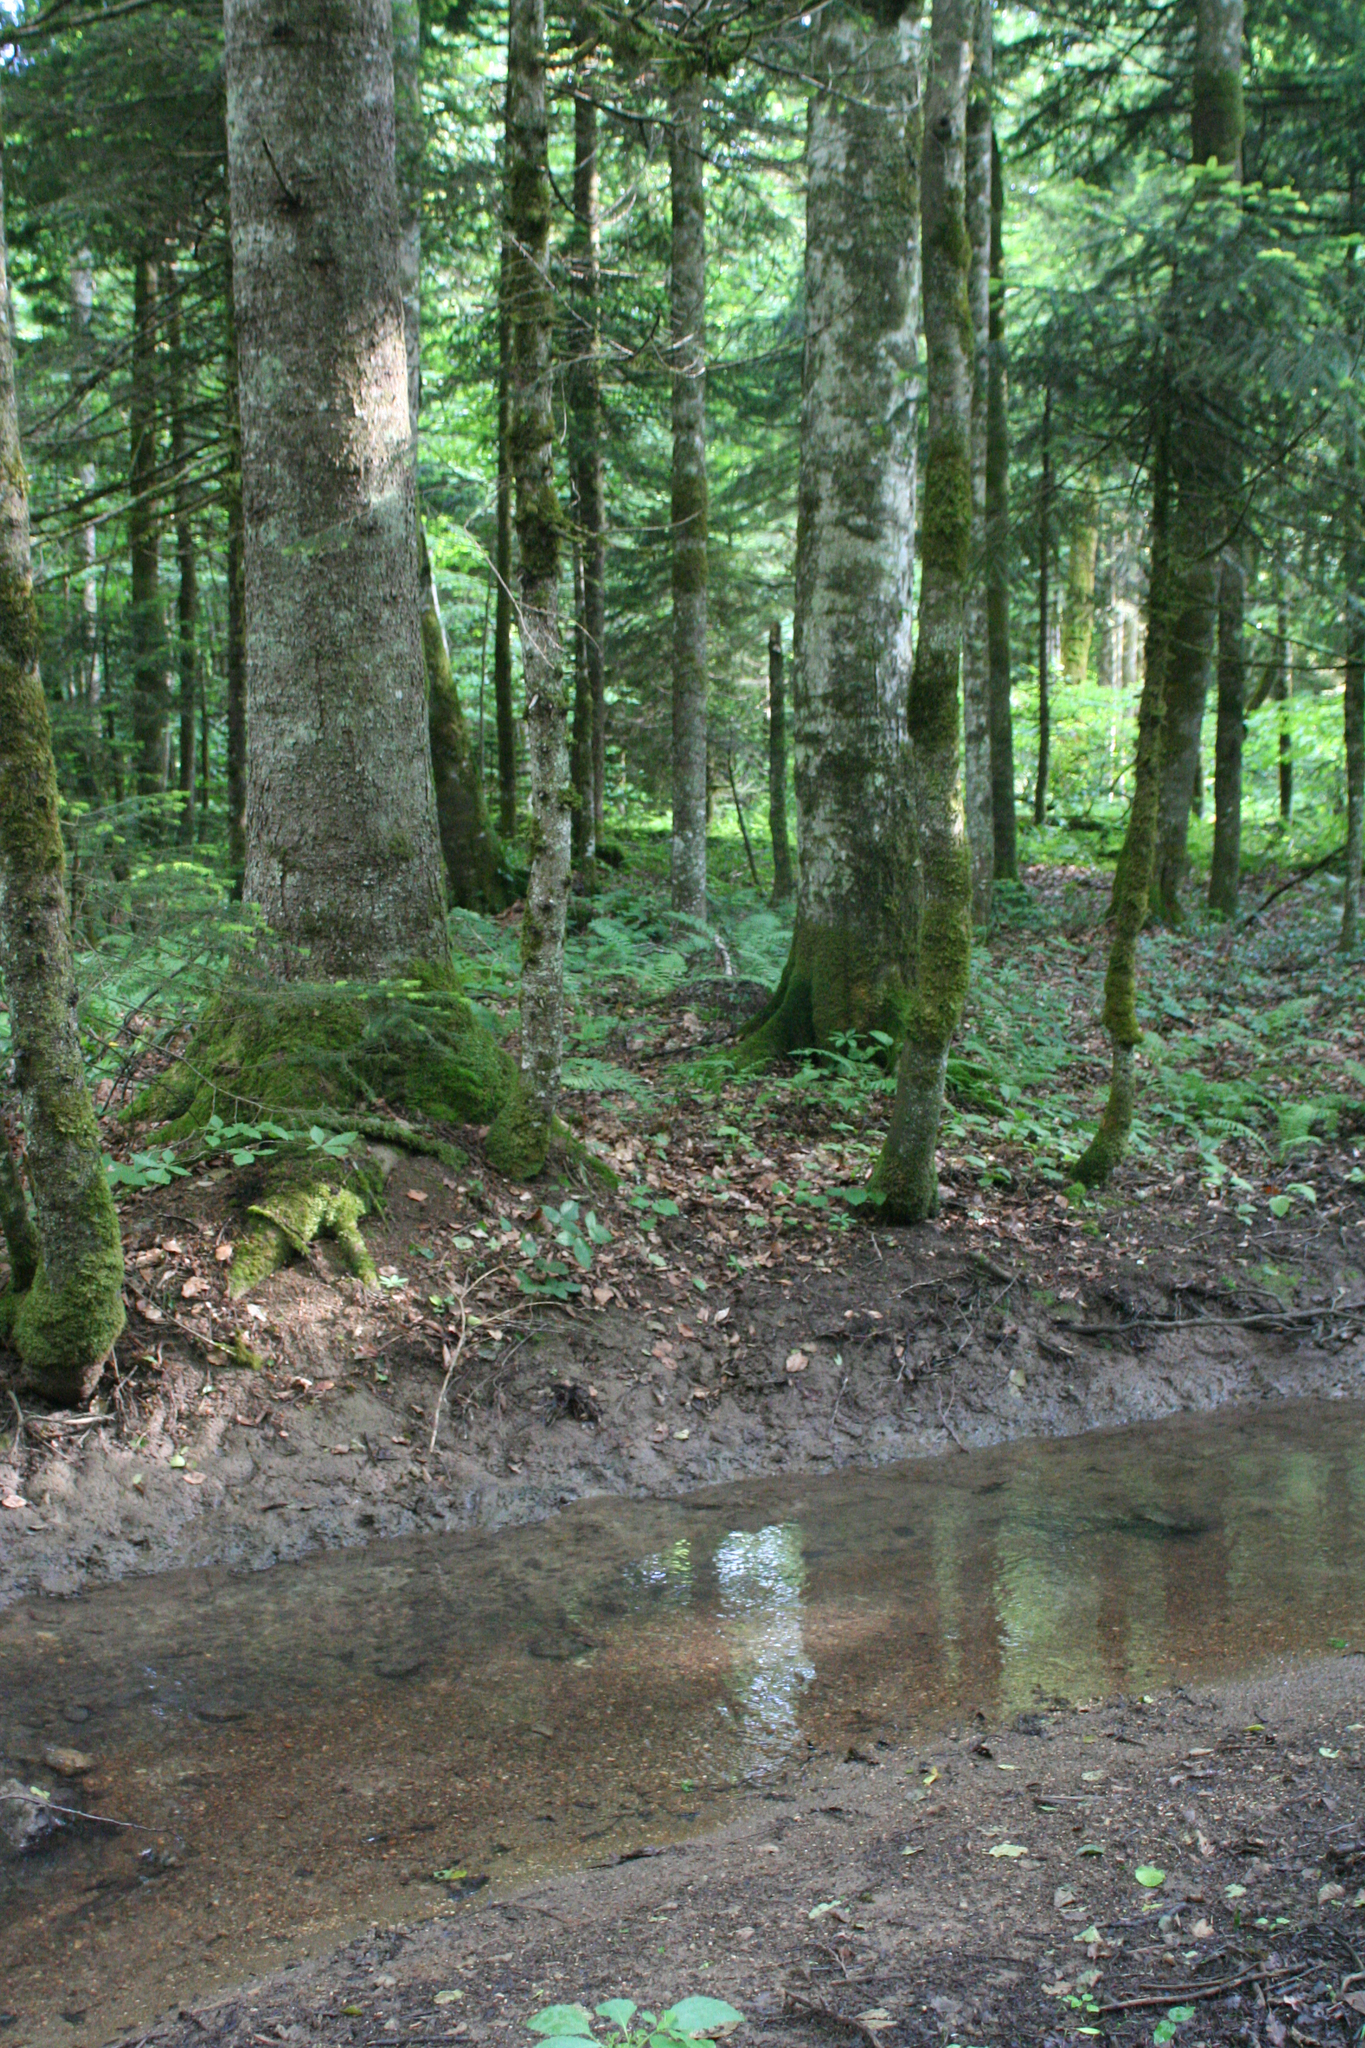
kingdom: Plantae
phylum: Tracheophyta
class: Pinopsida
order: Pinales
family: Pinaceae
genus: Abies
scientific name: Abies nordmanniana
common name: Caucasian fir
